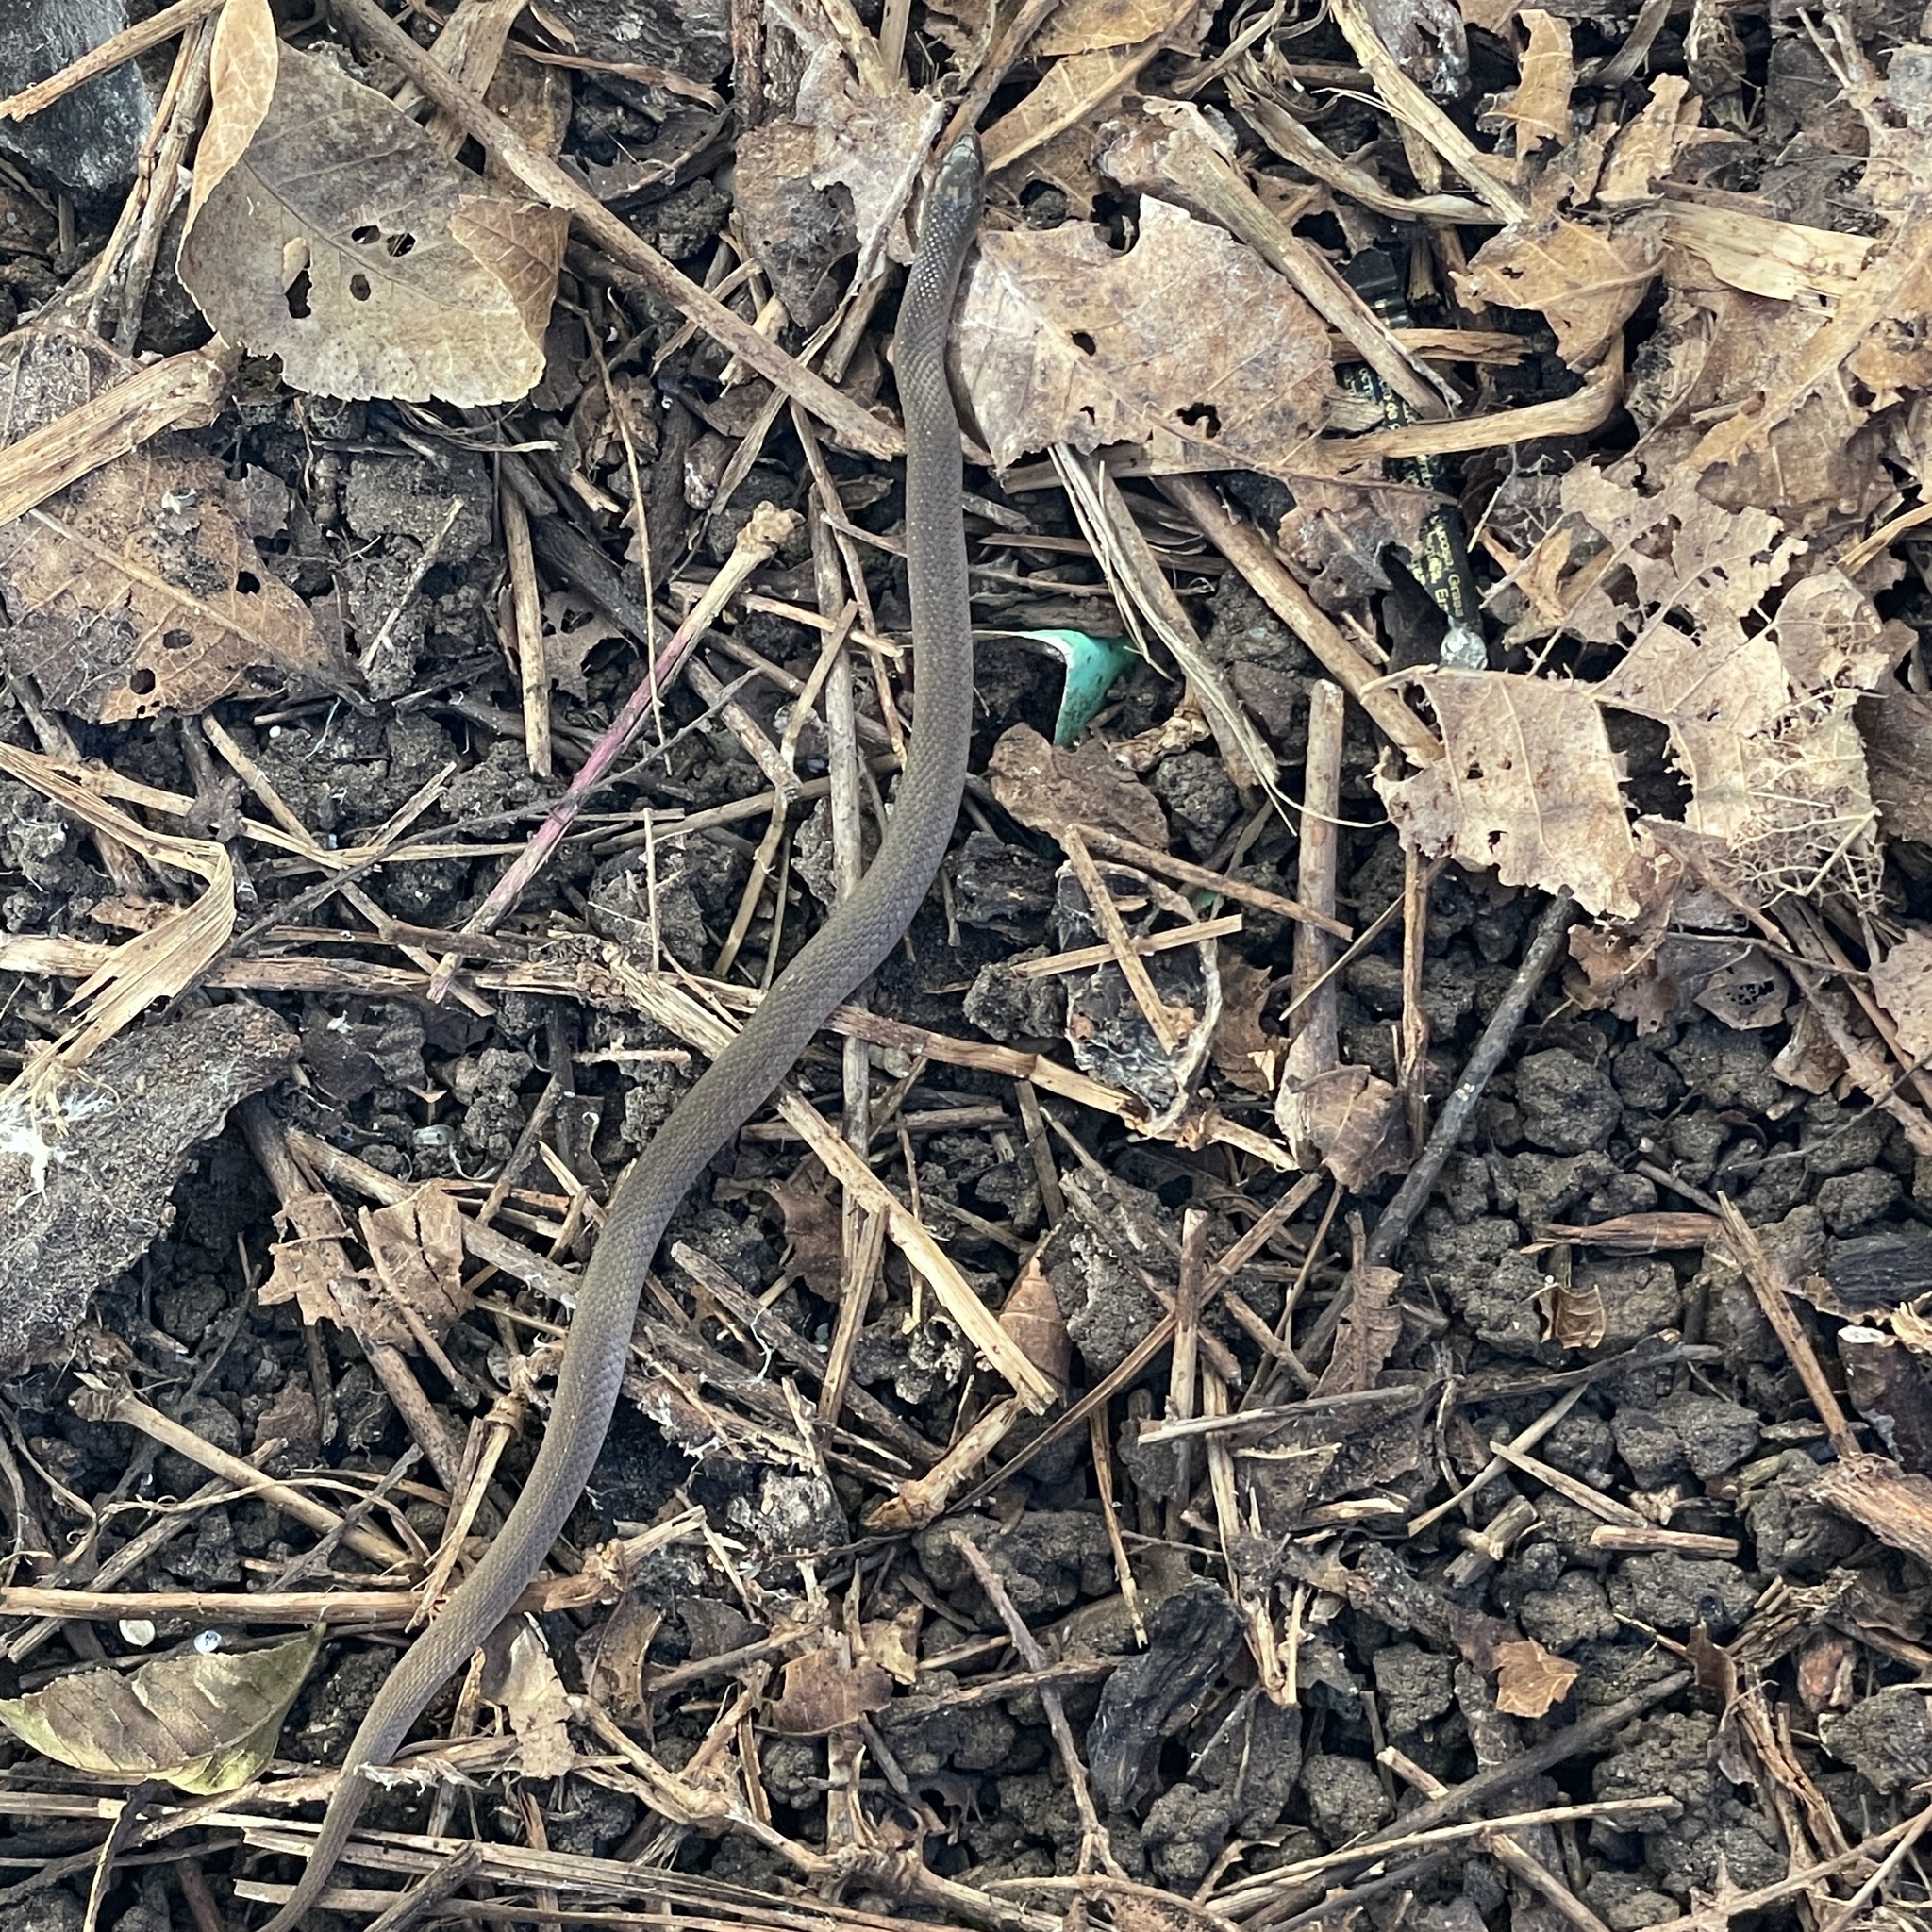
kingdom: Animalia
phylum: Chordata
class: Squamata
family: Colubridae
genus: Haldea
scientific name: Haldea striatula
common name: Rough earth snake
